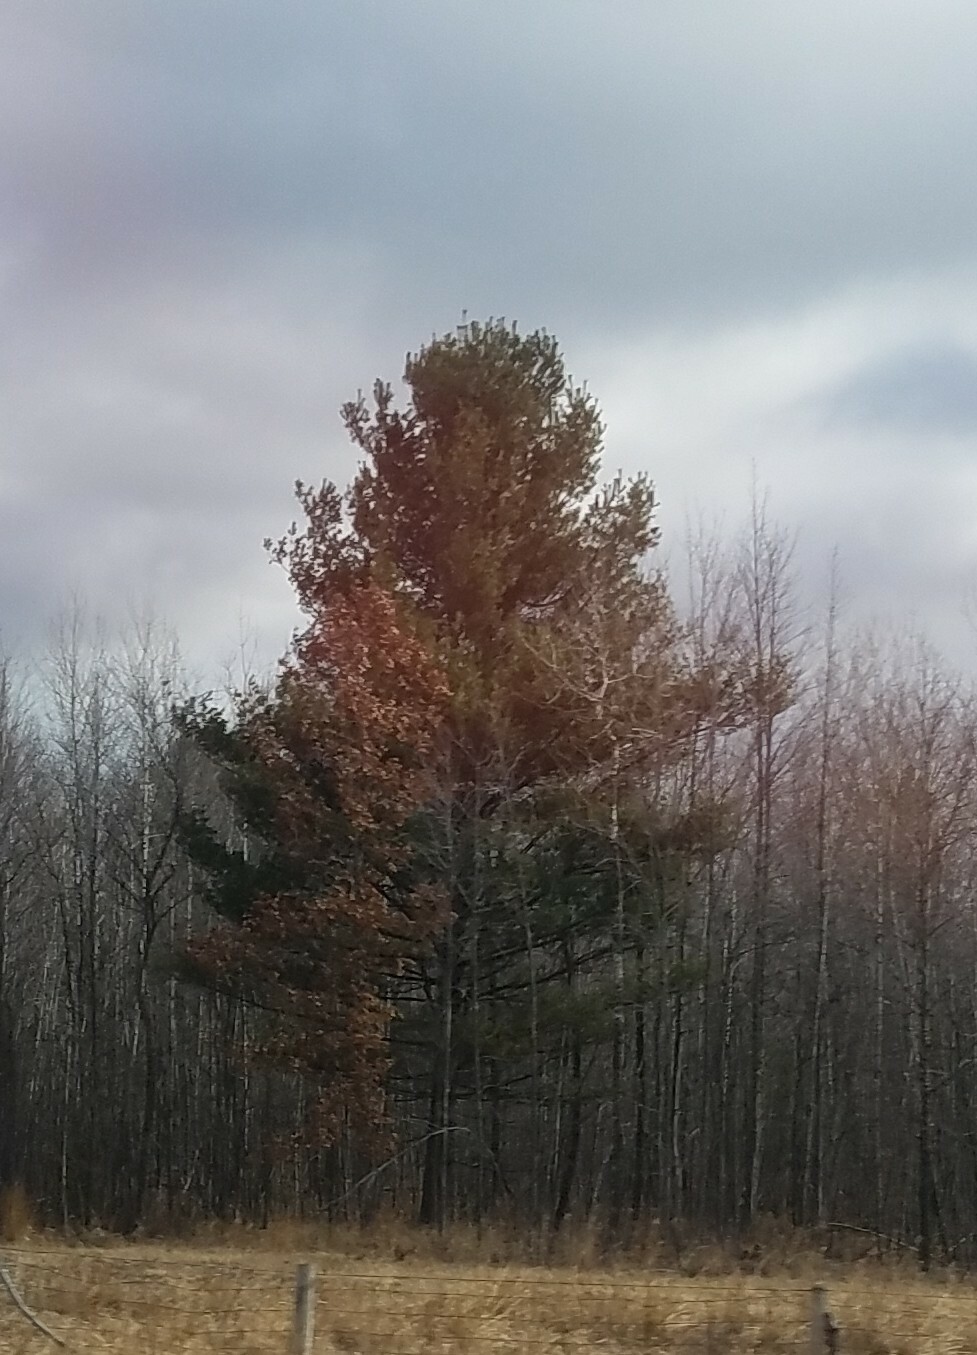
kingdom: Plantae
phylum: Tracheophyta
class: Pinopsida
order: Pinales
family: Pinaceae
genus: Pinus
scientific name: Pinus strobus
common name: Weymouth pine
